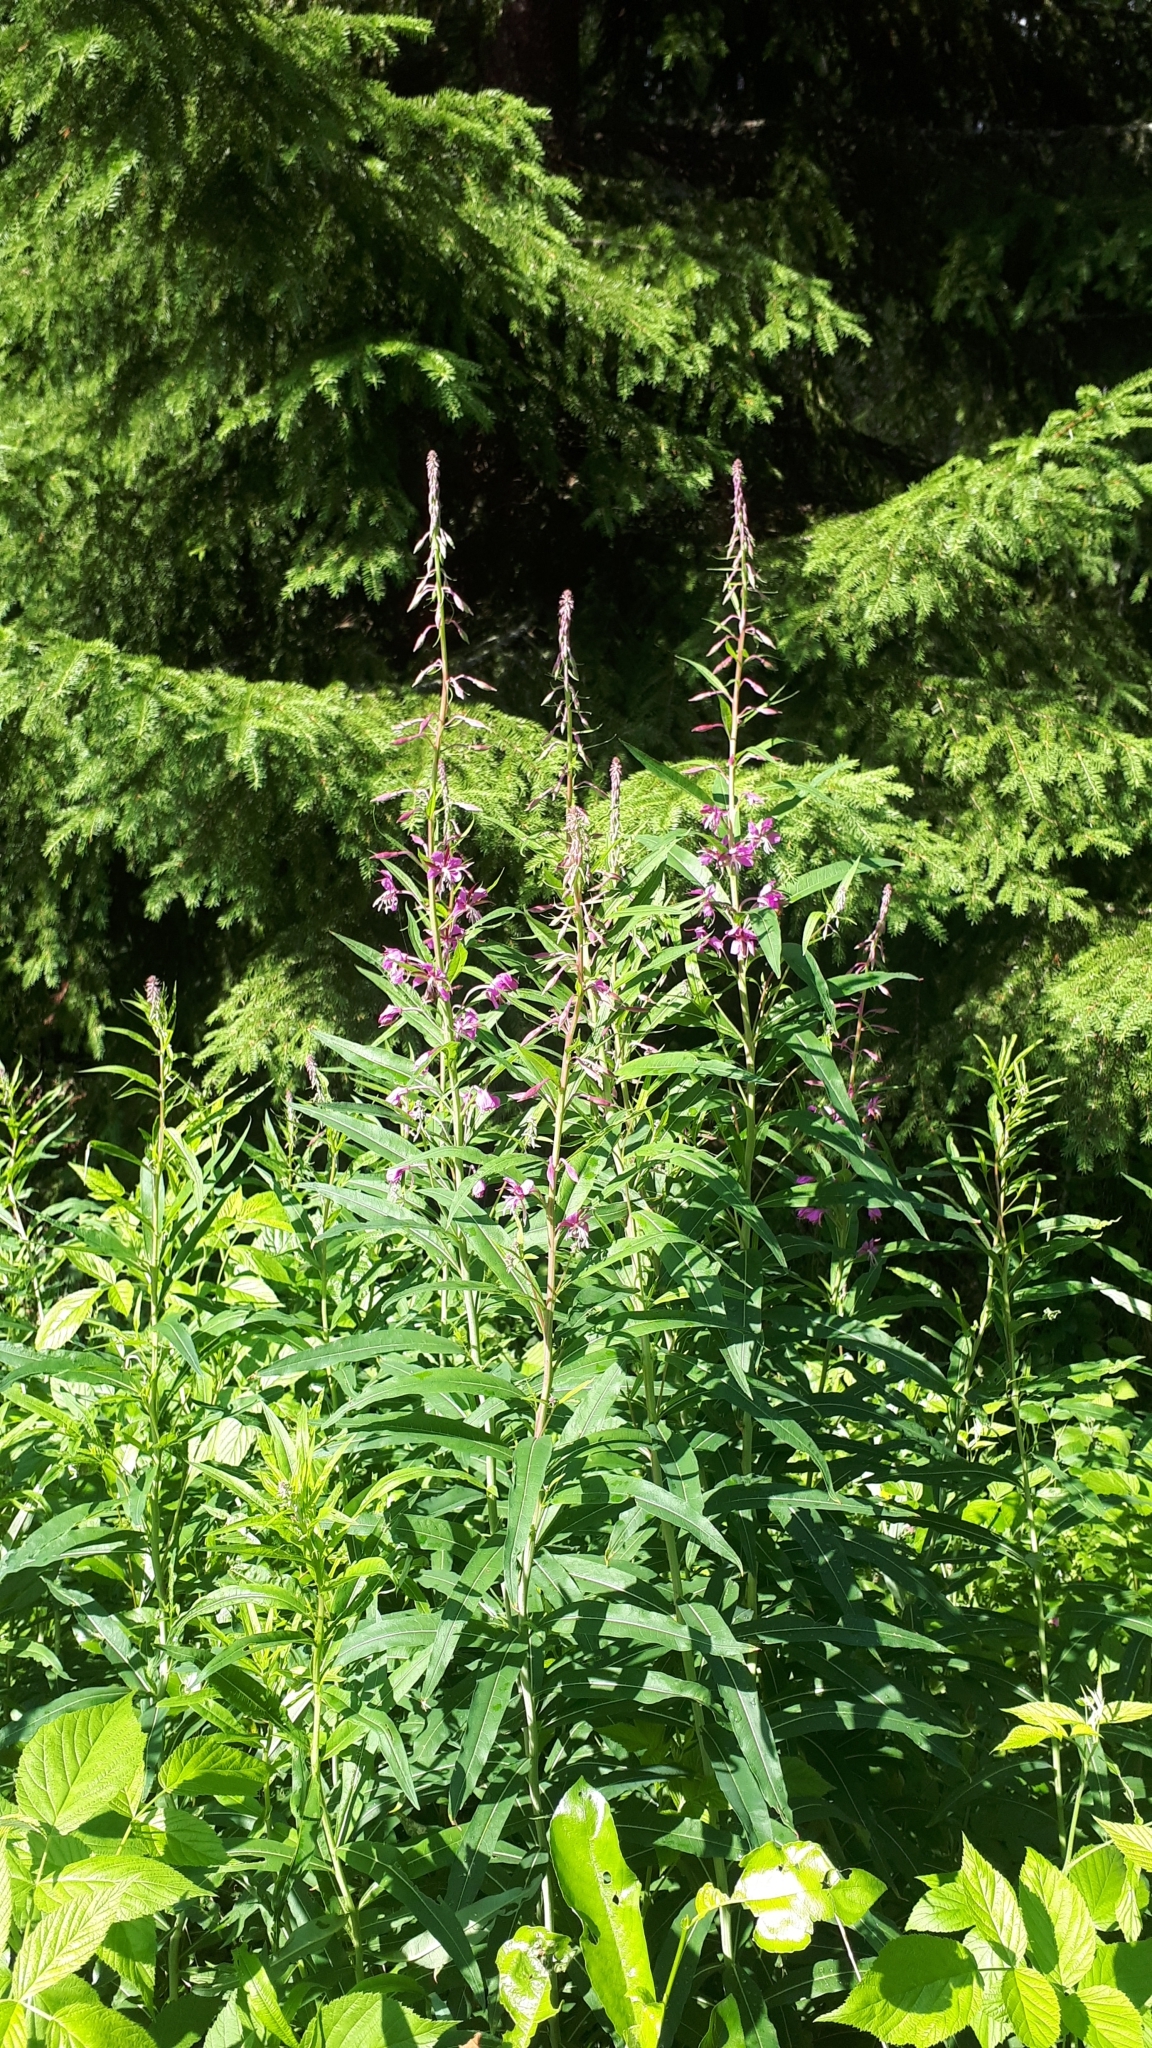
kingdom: Plantae
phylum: Tracheophyta
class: Magnoliopsida
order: Myrtales
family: Onagraceae
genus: Chamaenerion
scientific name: Chamaenerion angustifolium
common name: Fireweed
